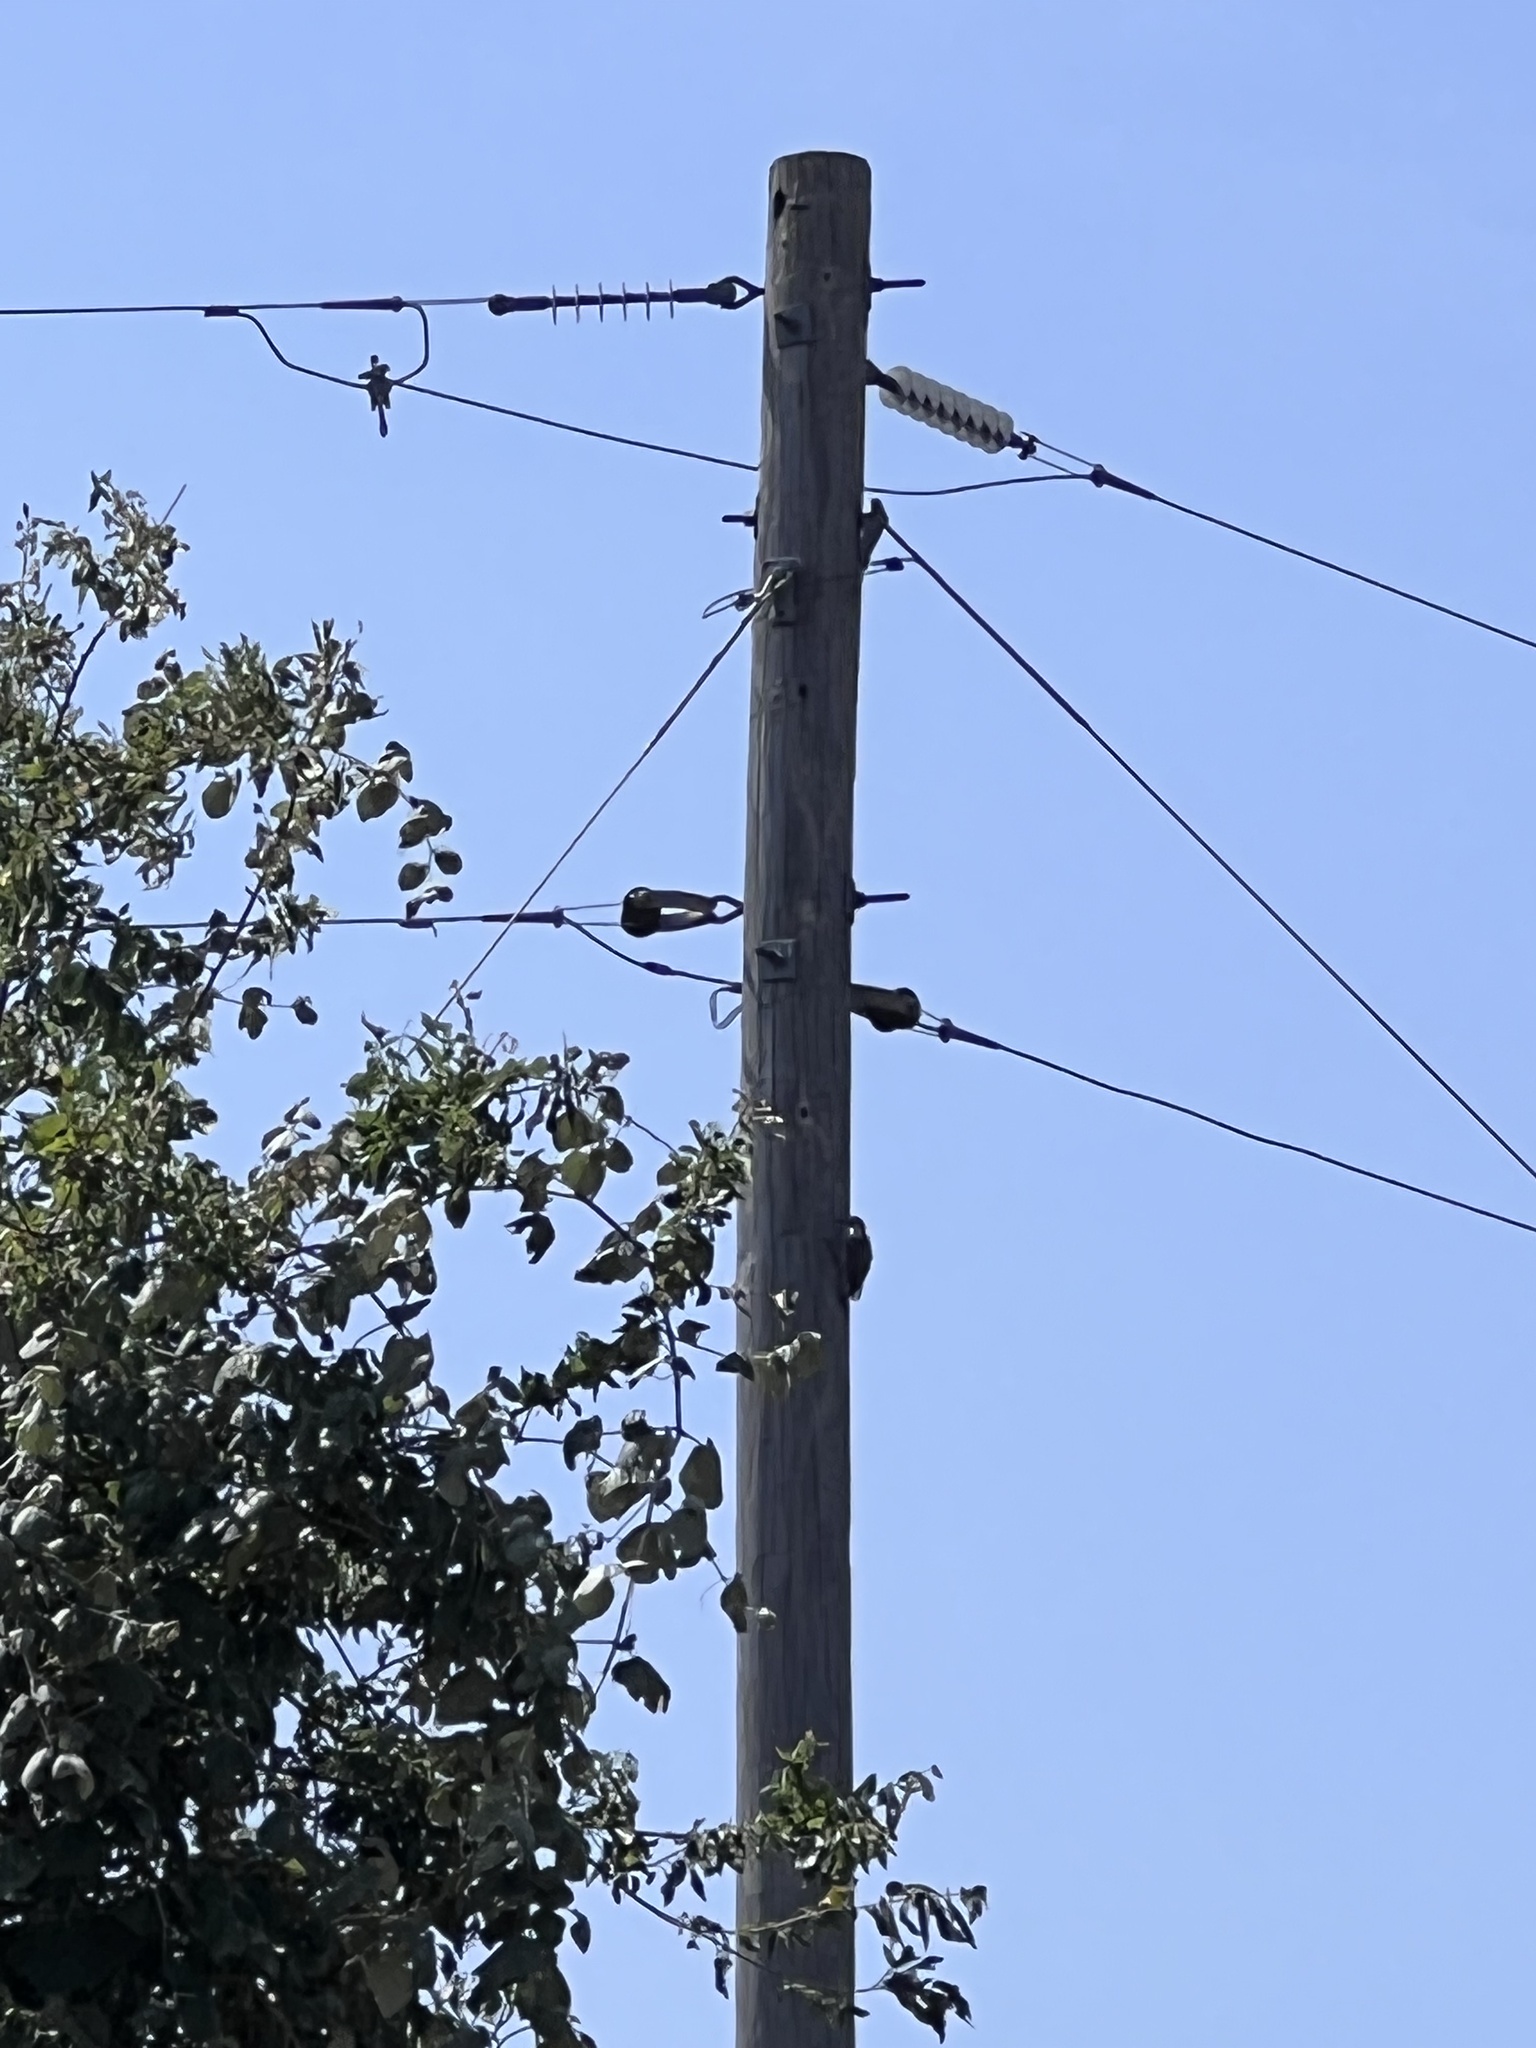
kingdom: Animalia
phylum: Chordata
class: Aves
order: Piciformes
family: Picidae
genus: Melanerpes
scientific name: Melanerpes carolinus
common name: Red-bellied woodpecker
